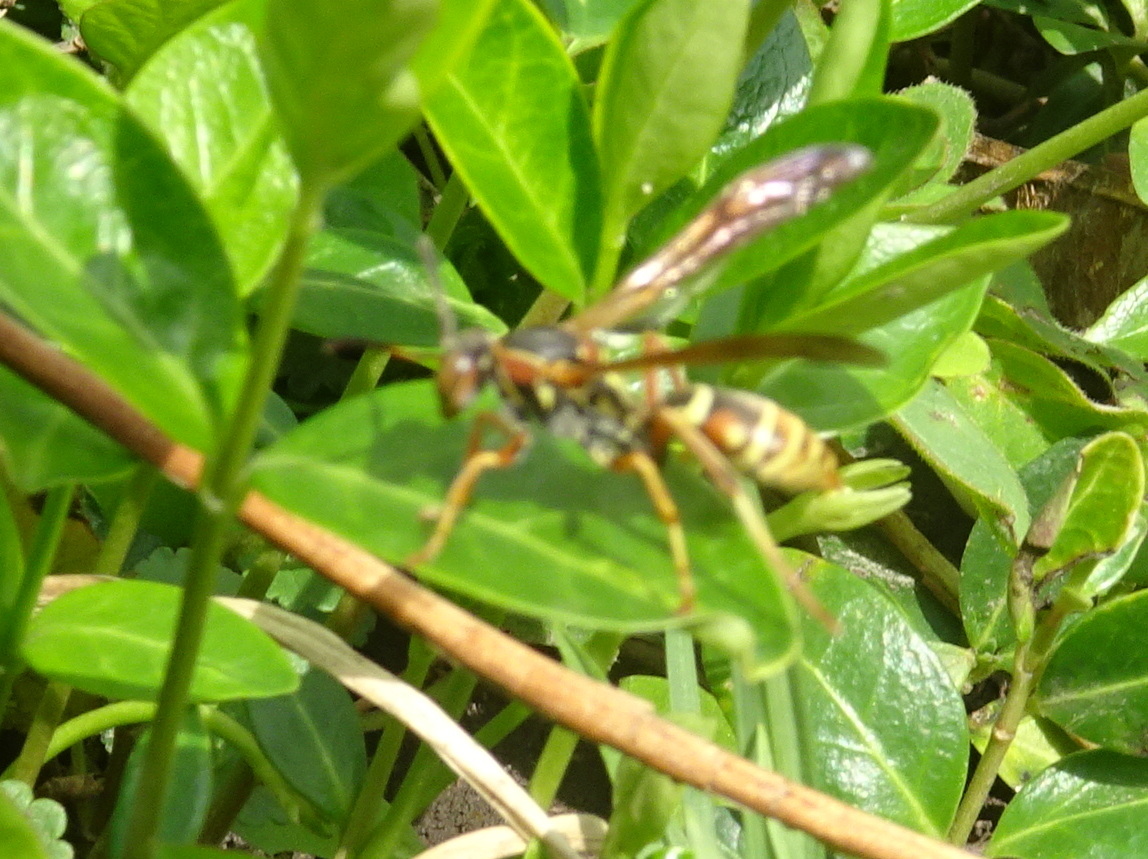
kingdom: Animalia
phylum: Arthropoda
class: Insecta
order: Hymenoptera
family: Eumenidae
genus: Polistes
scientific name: Polistes fuscatus
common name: Dark paper wasp
